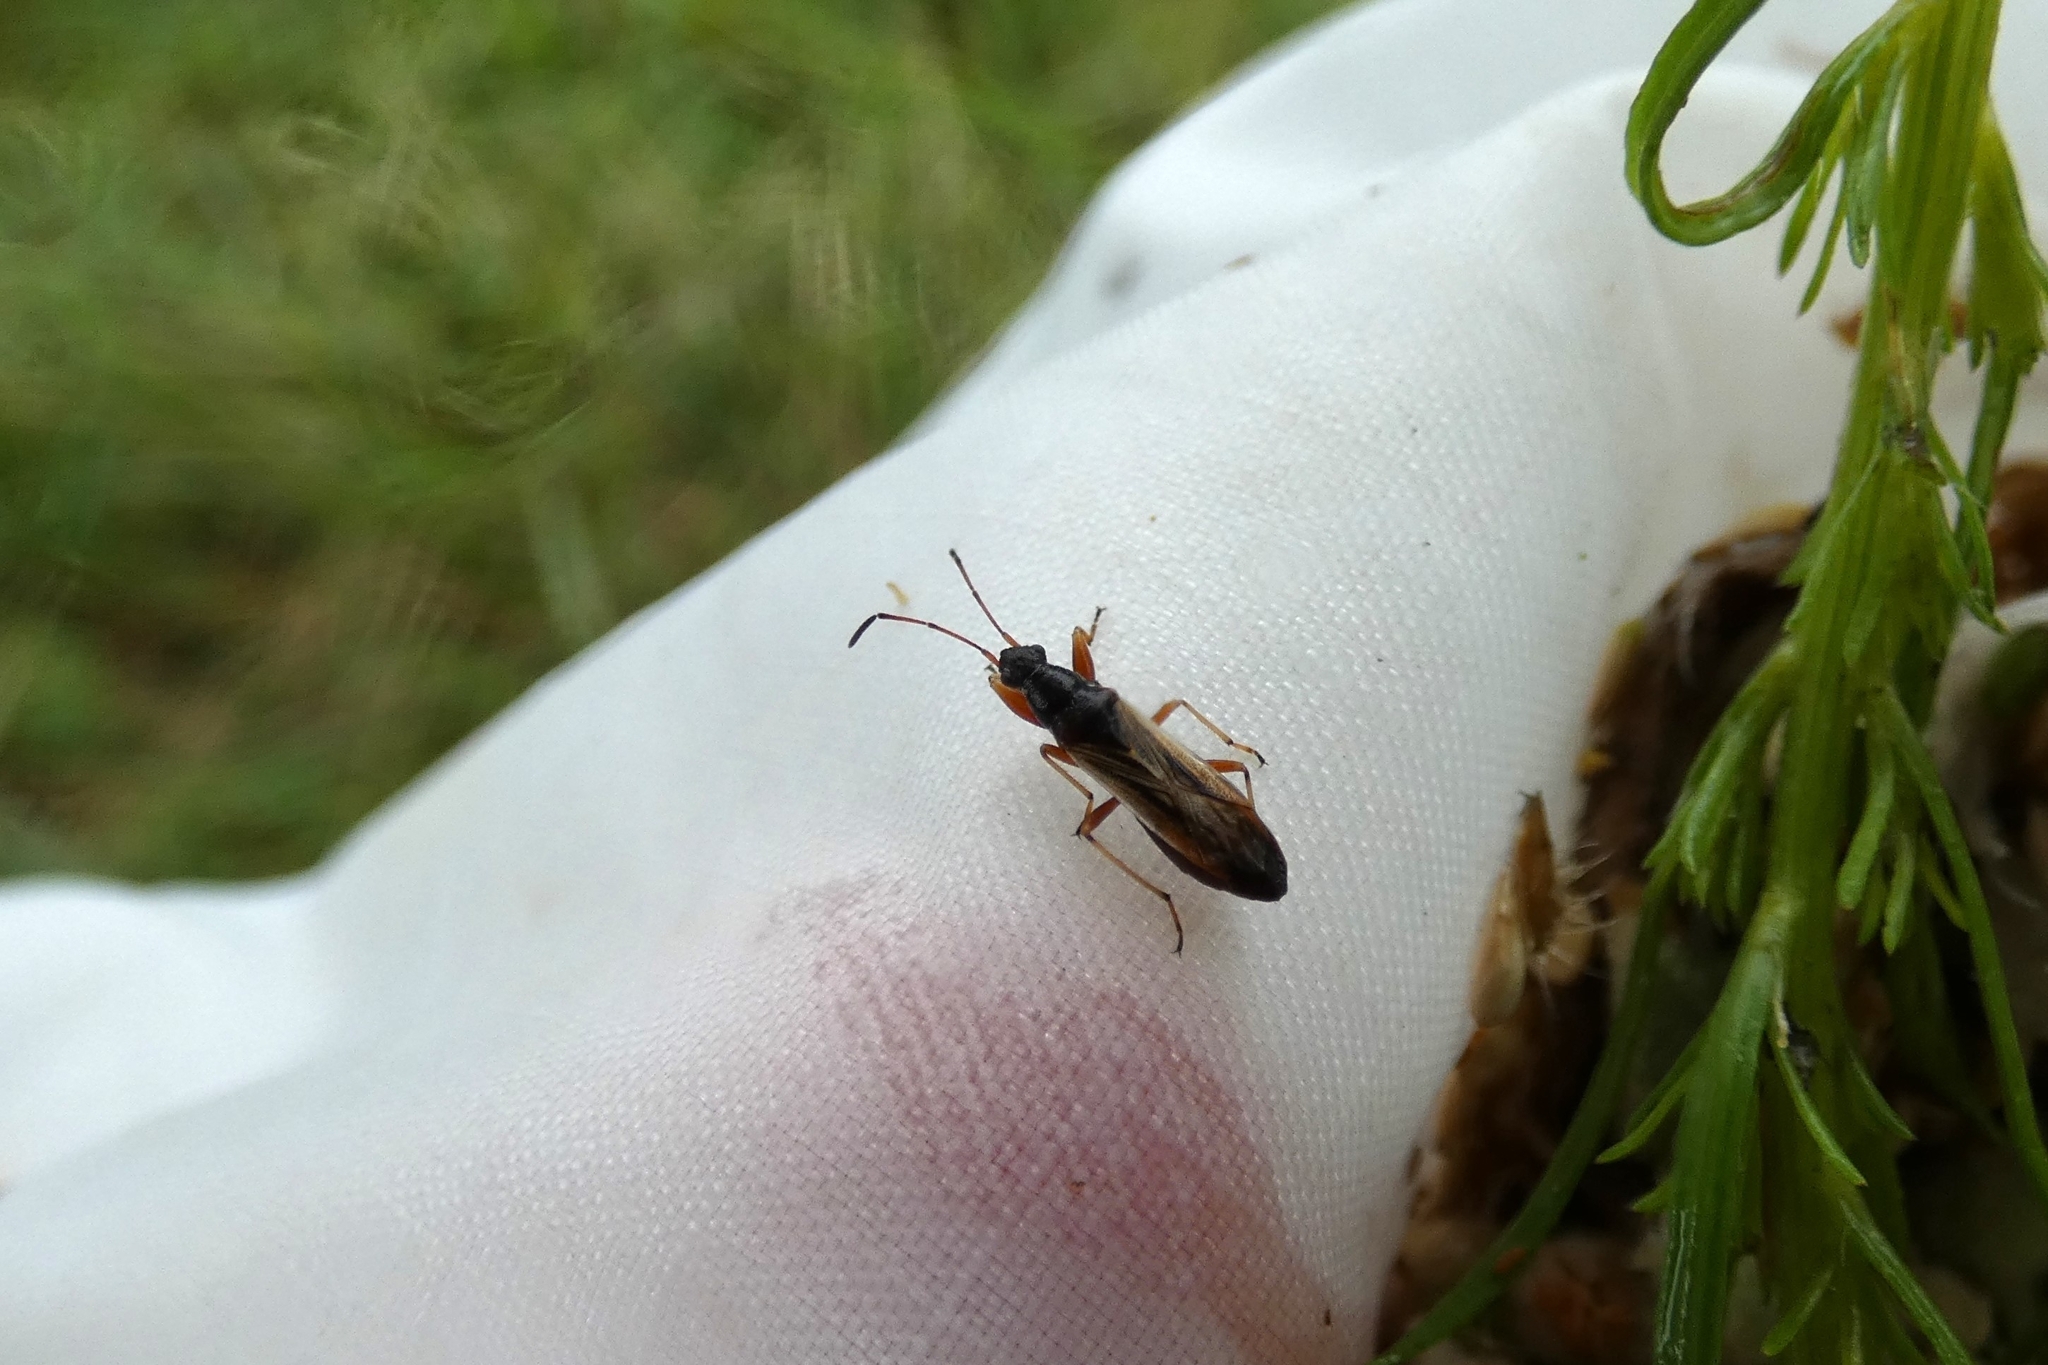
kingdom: Animalia
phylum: Arthropoda
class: Insecta
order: Hemiptera
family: Rhyparochromidae
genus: Paromius
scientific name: Paromius longulus
